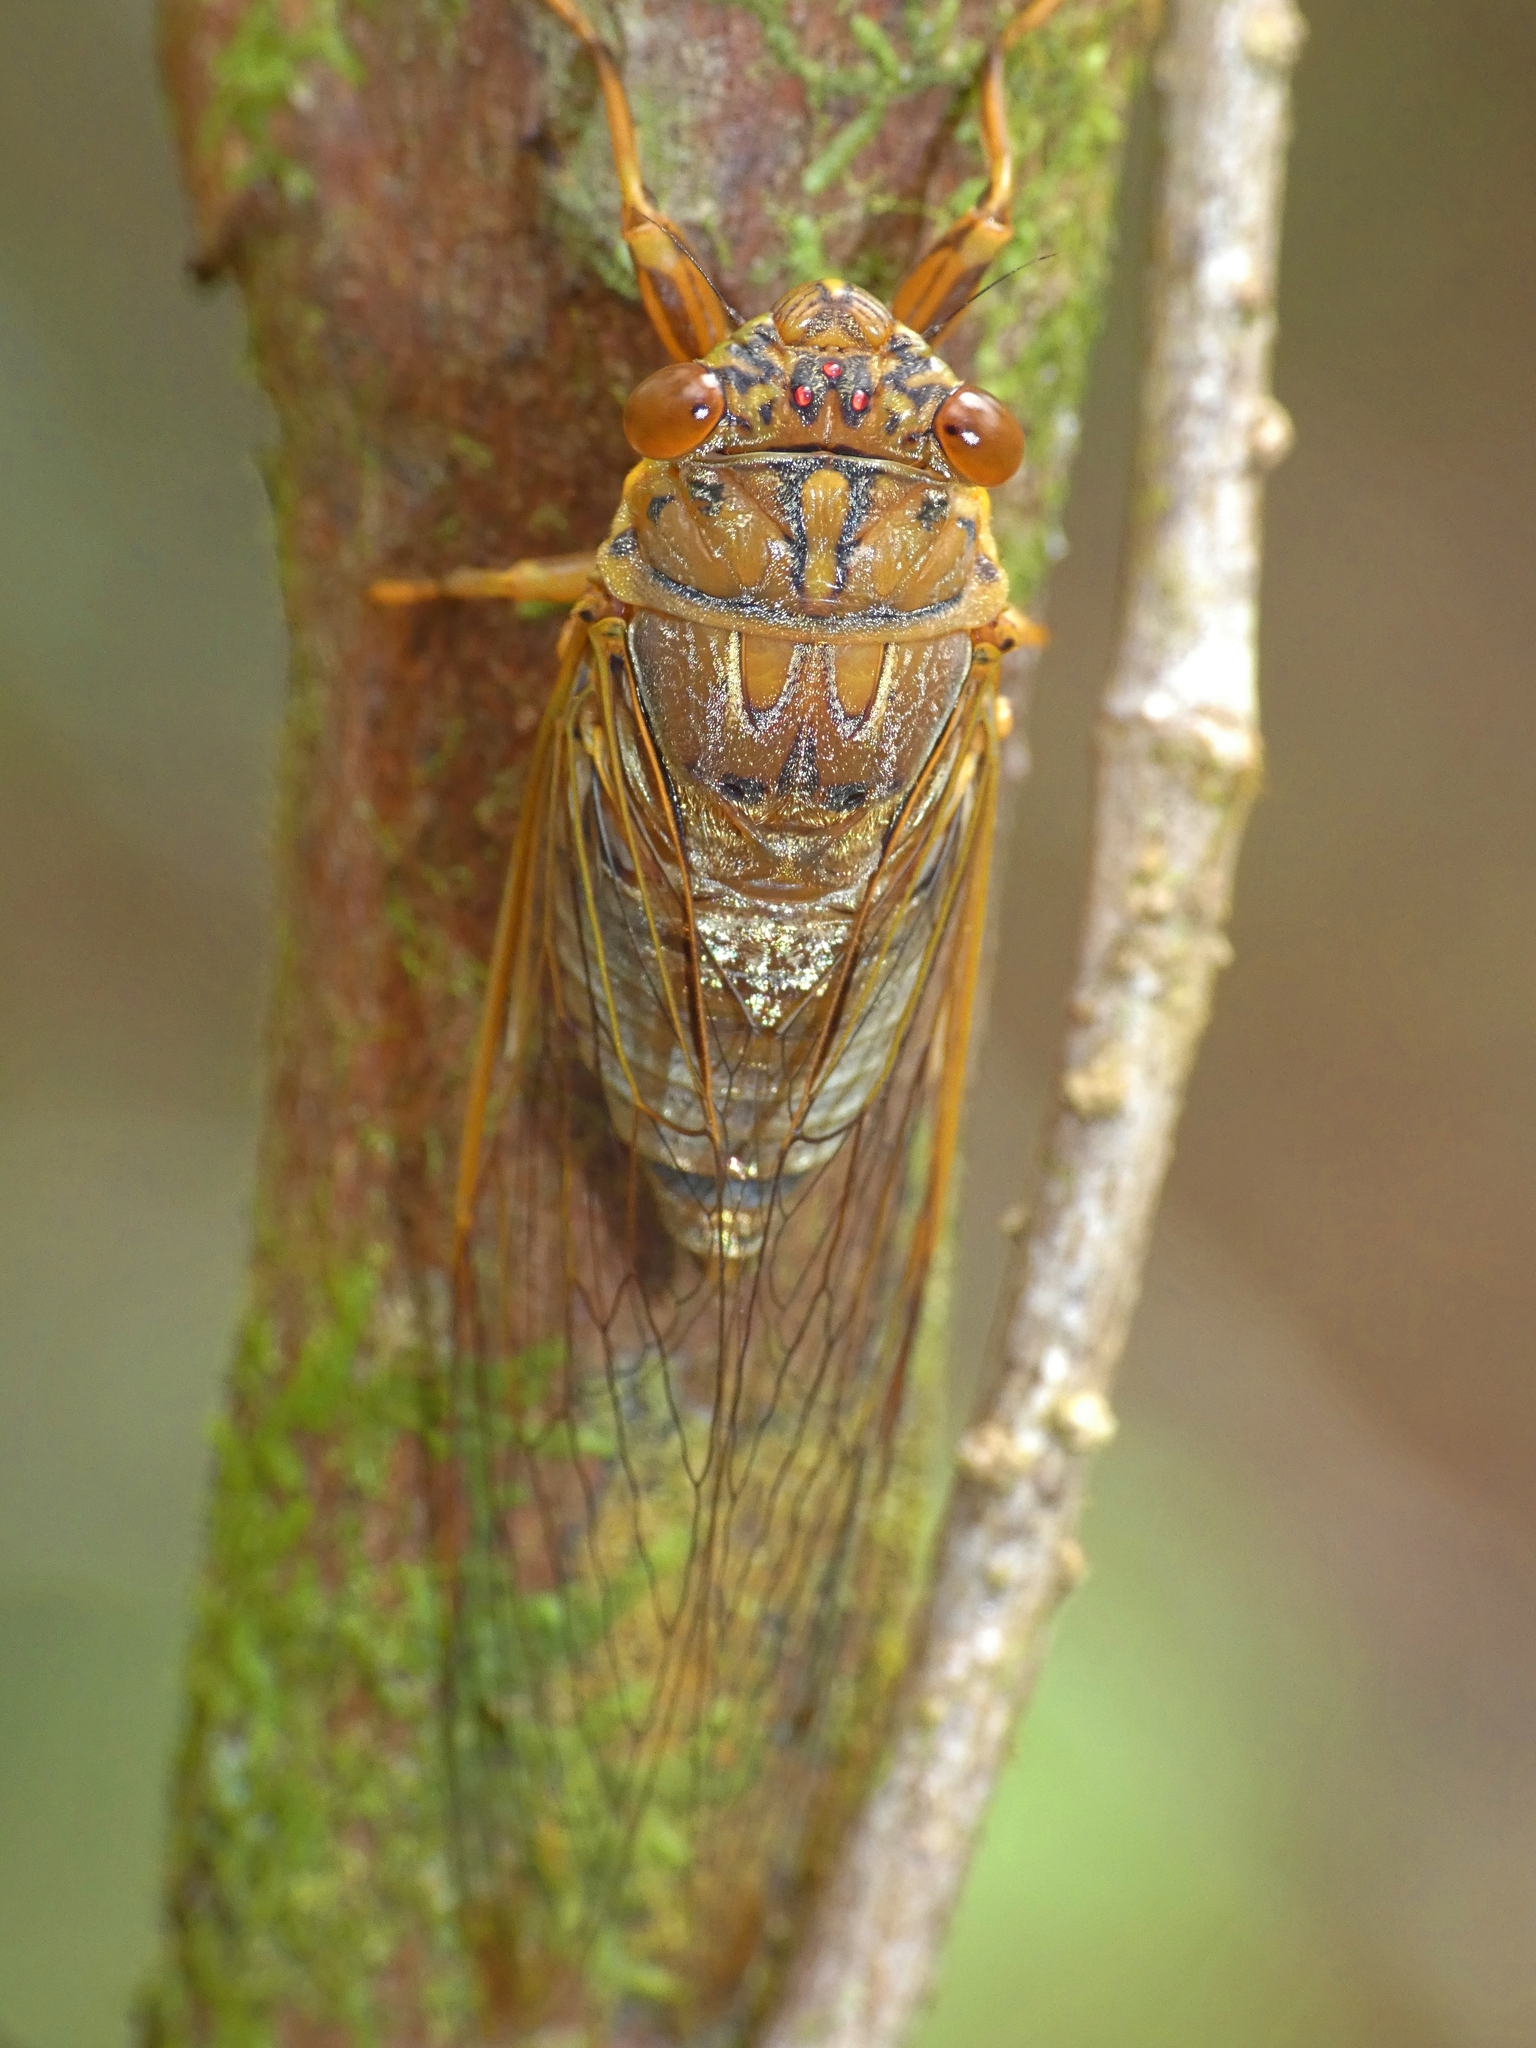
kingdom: Animalia
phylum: Arthropoda
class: Insecta
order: Hemiptera
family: Cicadidae
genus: Tamasa
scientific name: Tamasa doddi
